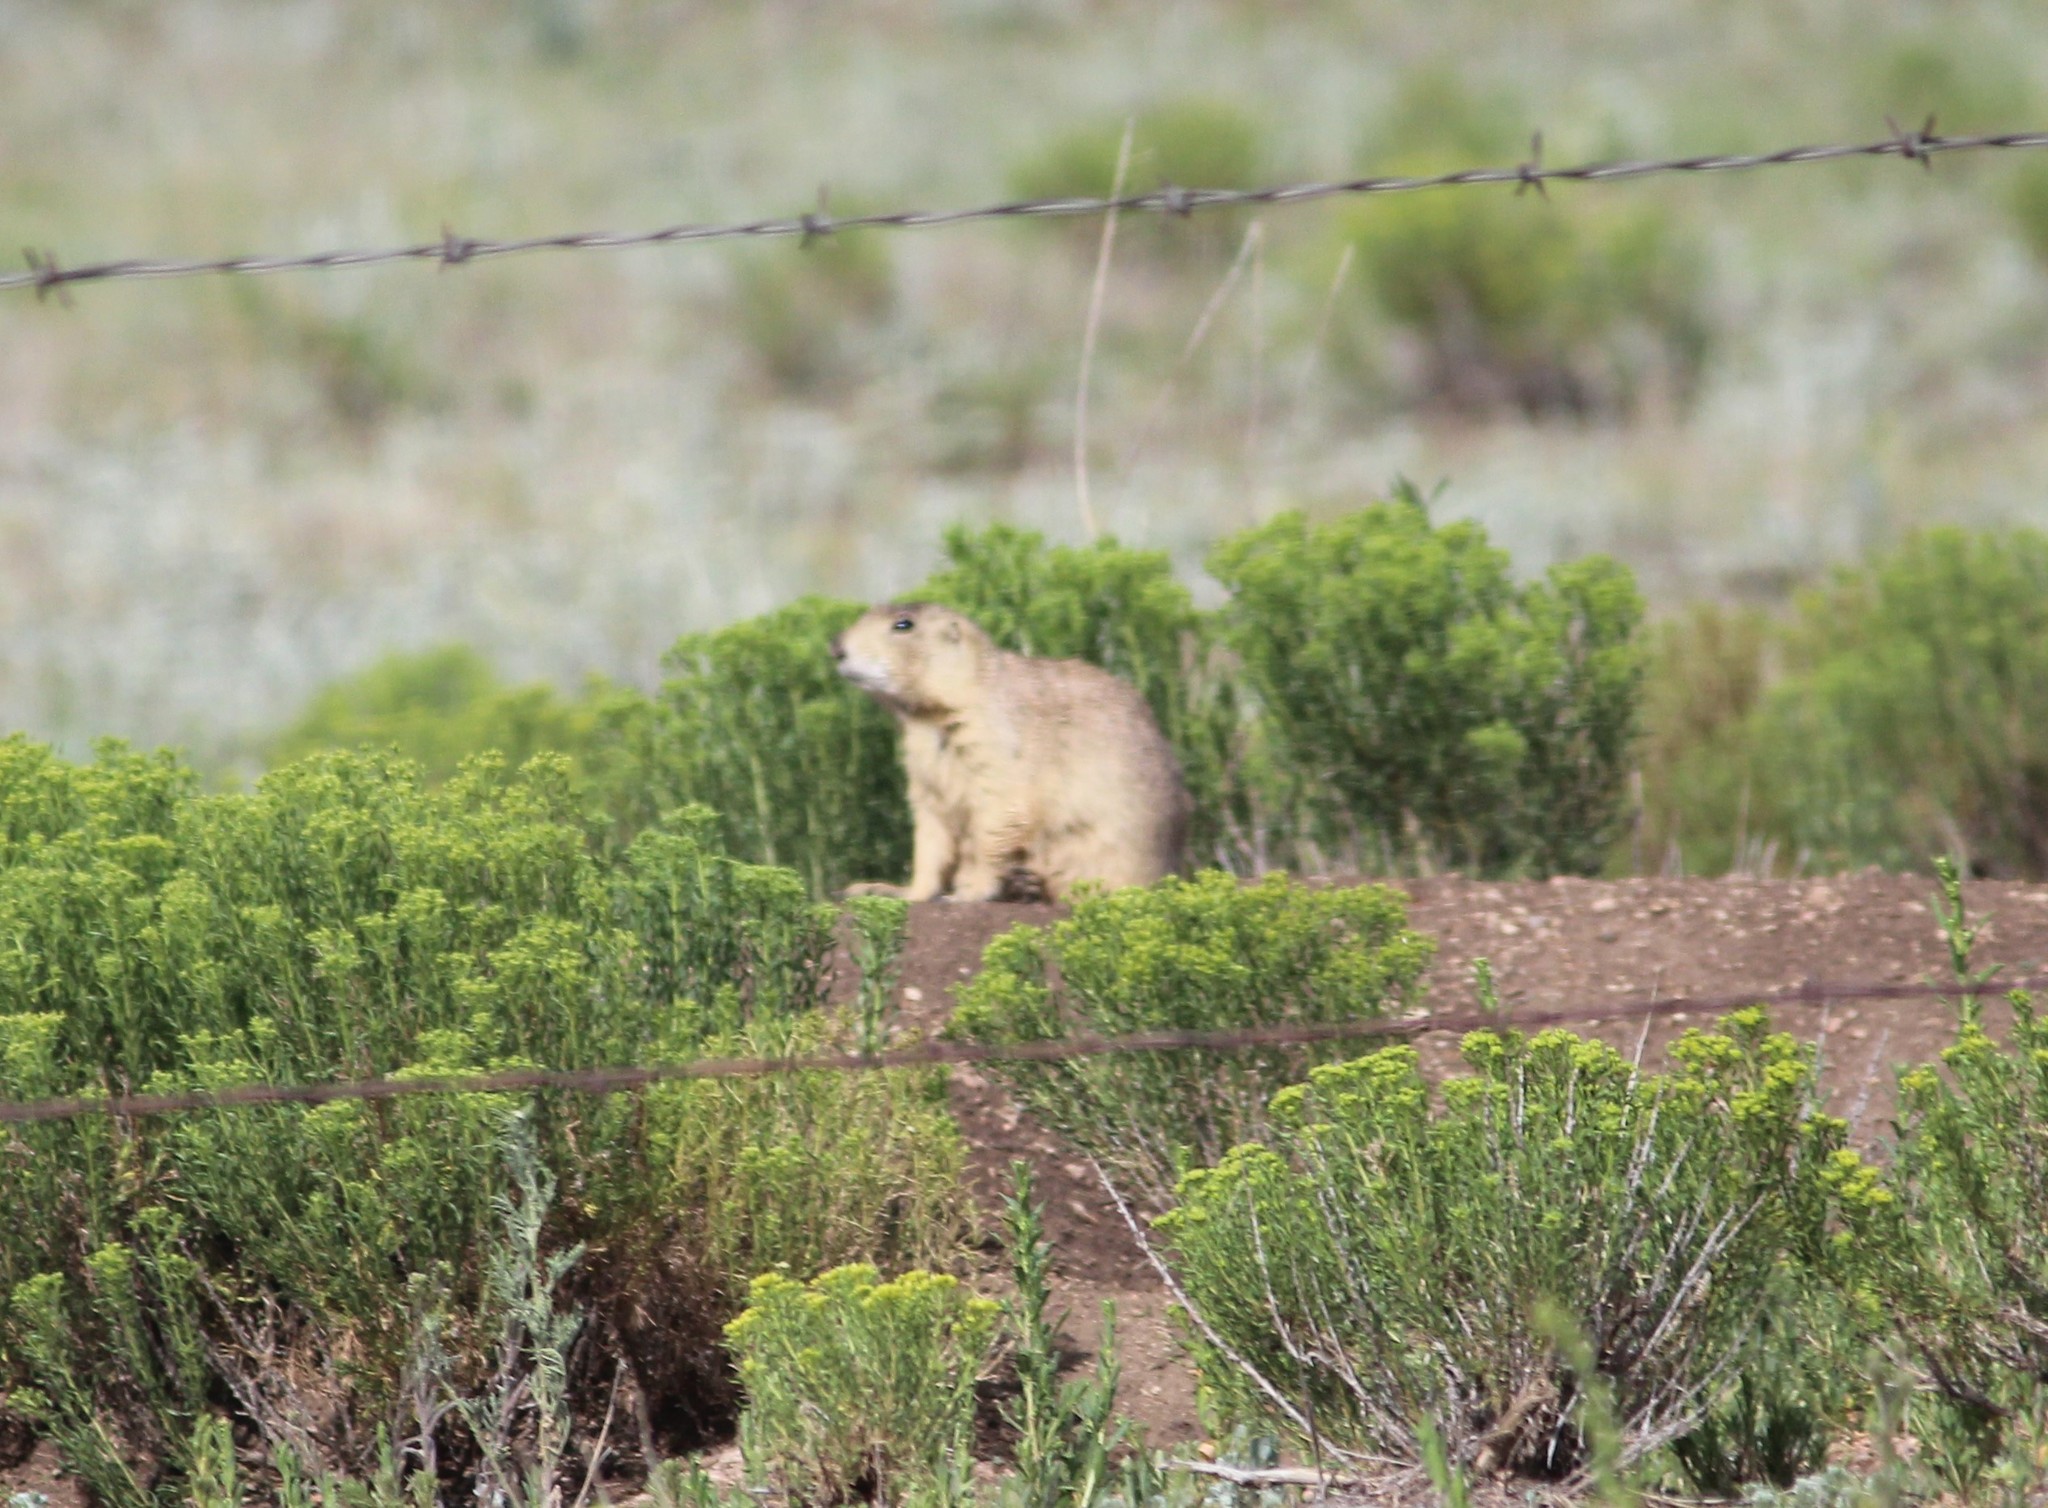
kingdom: Animalia
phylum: Chordata
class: Mammalia
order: Rodentia
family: Sciuridae
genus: Cynomys
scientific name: Cynomys gunnisoni
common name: Gunnison's prairie dog
